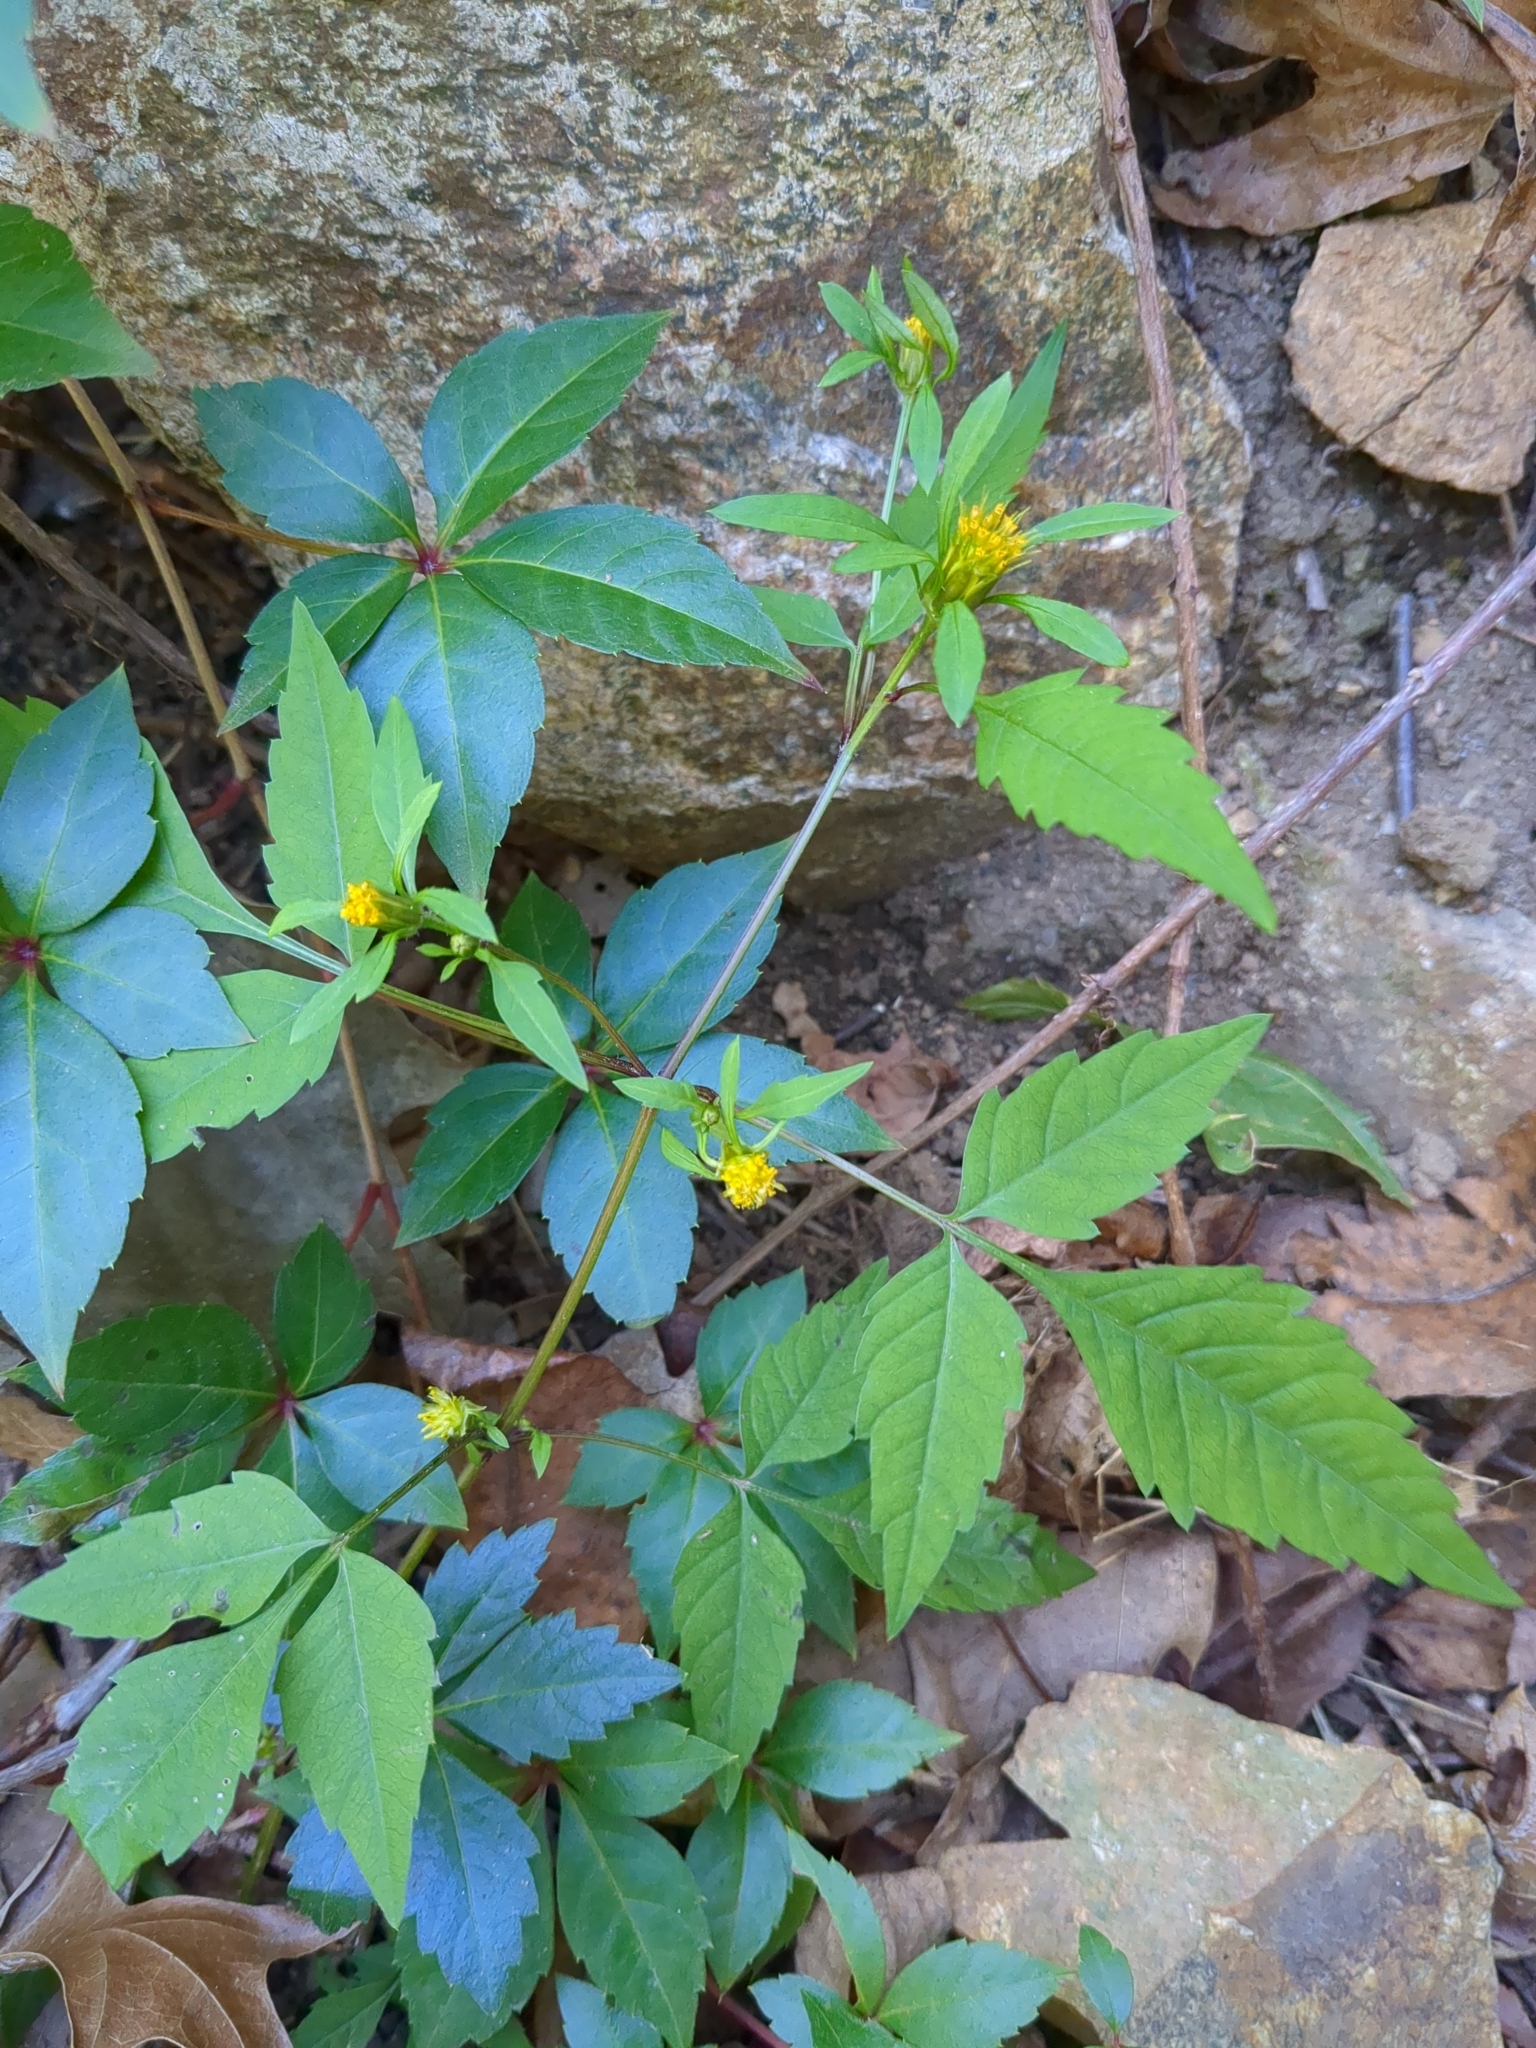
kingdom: Plantae
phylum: Tracheophyta
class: Magnoliopsida
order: Asterales
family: Asteraceae
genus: Bidens
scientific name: Bidens frondosa
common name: Beggarticks
